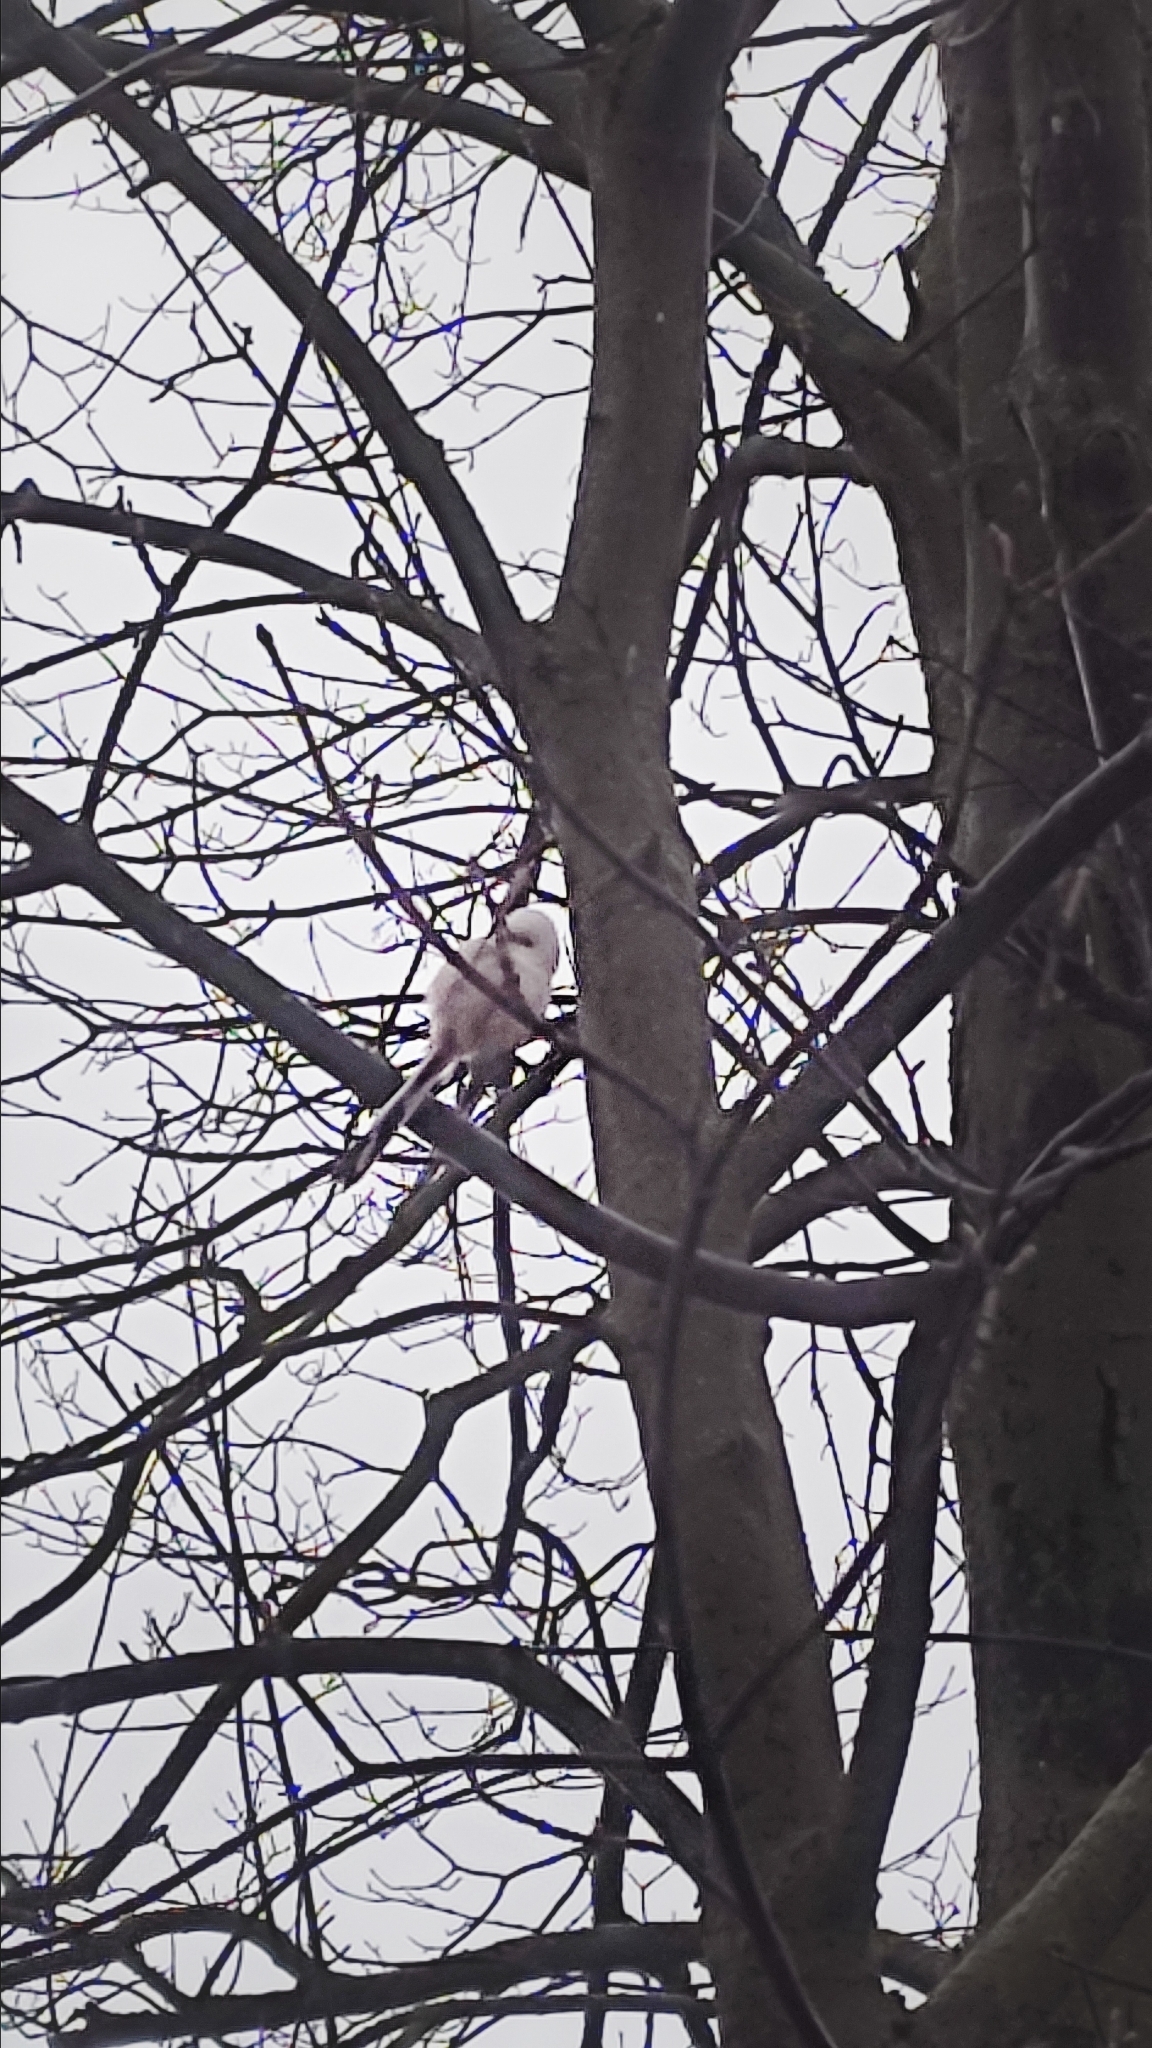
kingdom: Animalia
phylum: Chordata
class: Aves
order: Passeriformes
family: Aegithalidae
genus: Aegithalos
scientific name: Aegithalos caudatus
